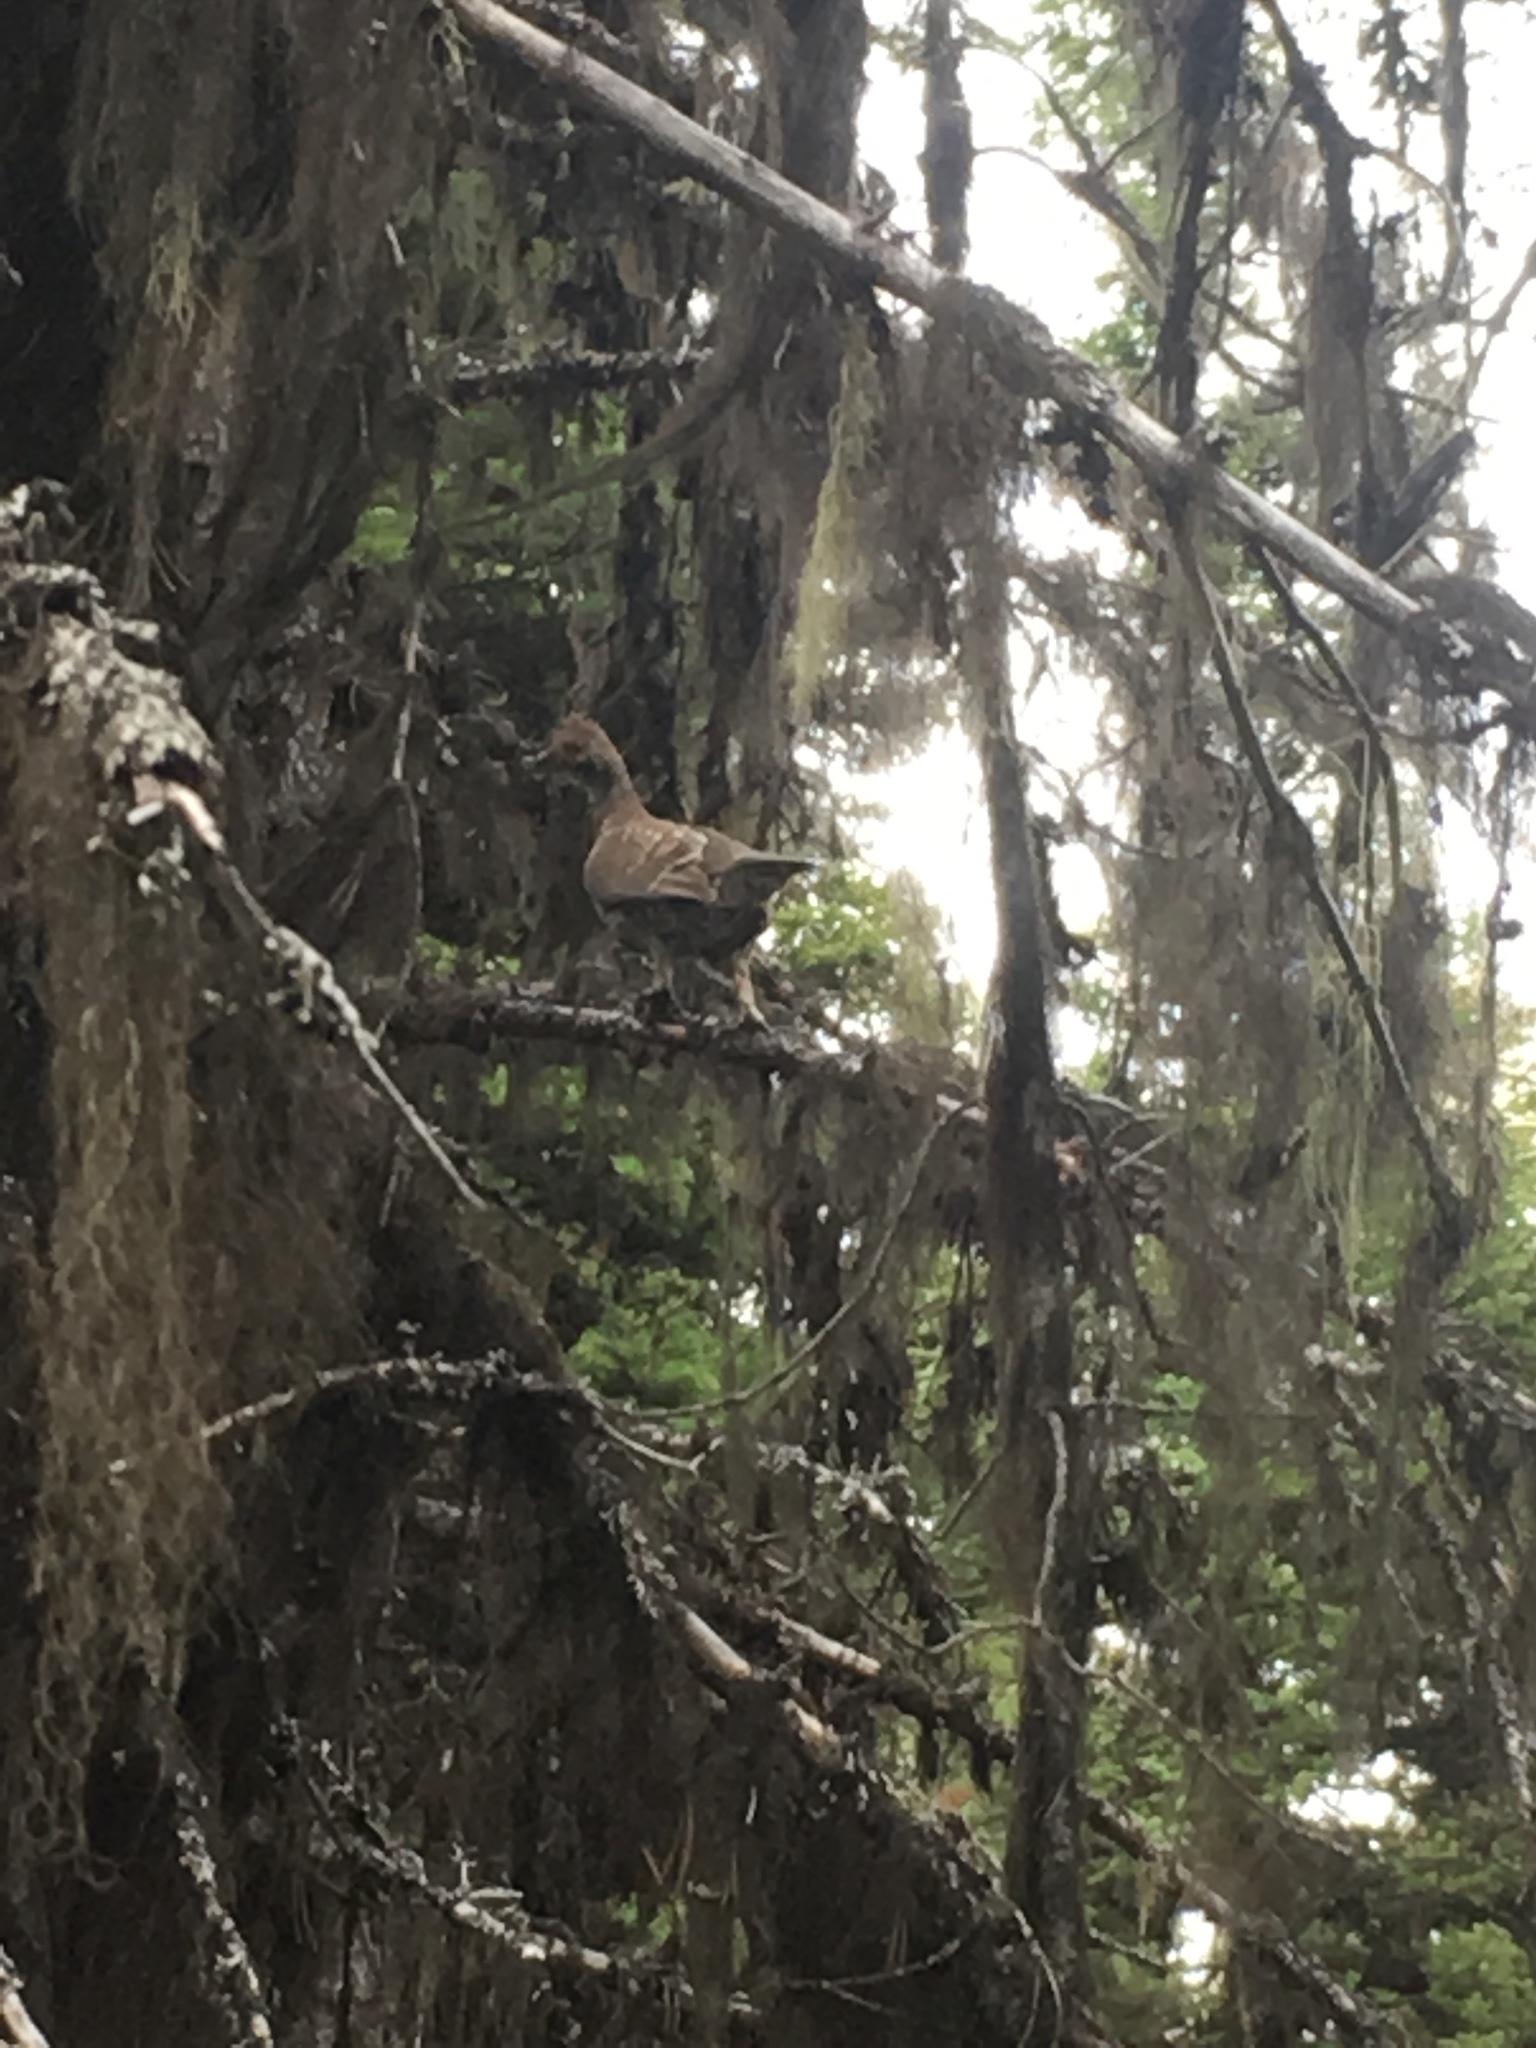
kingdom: Animalia
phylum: Chordata
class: Aves
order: Galliformes
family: Phasianidae
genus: Bonasa
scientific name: Bonasa umbellus
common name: Ruffed grouse
